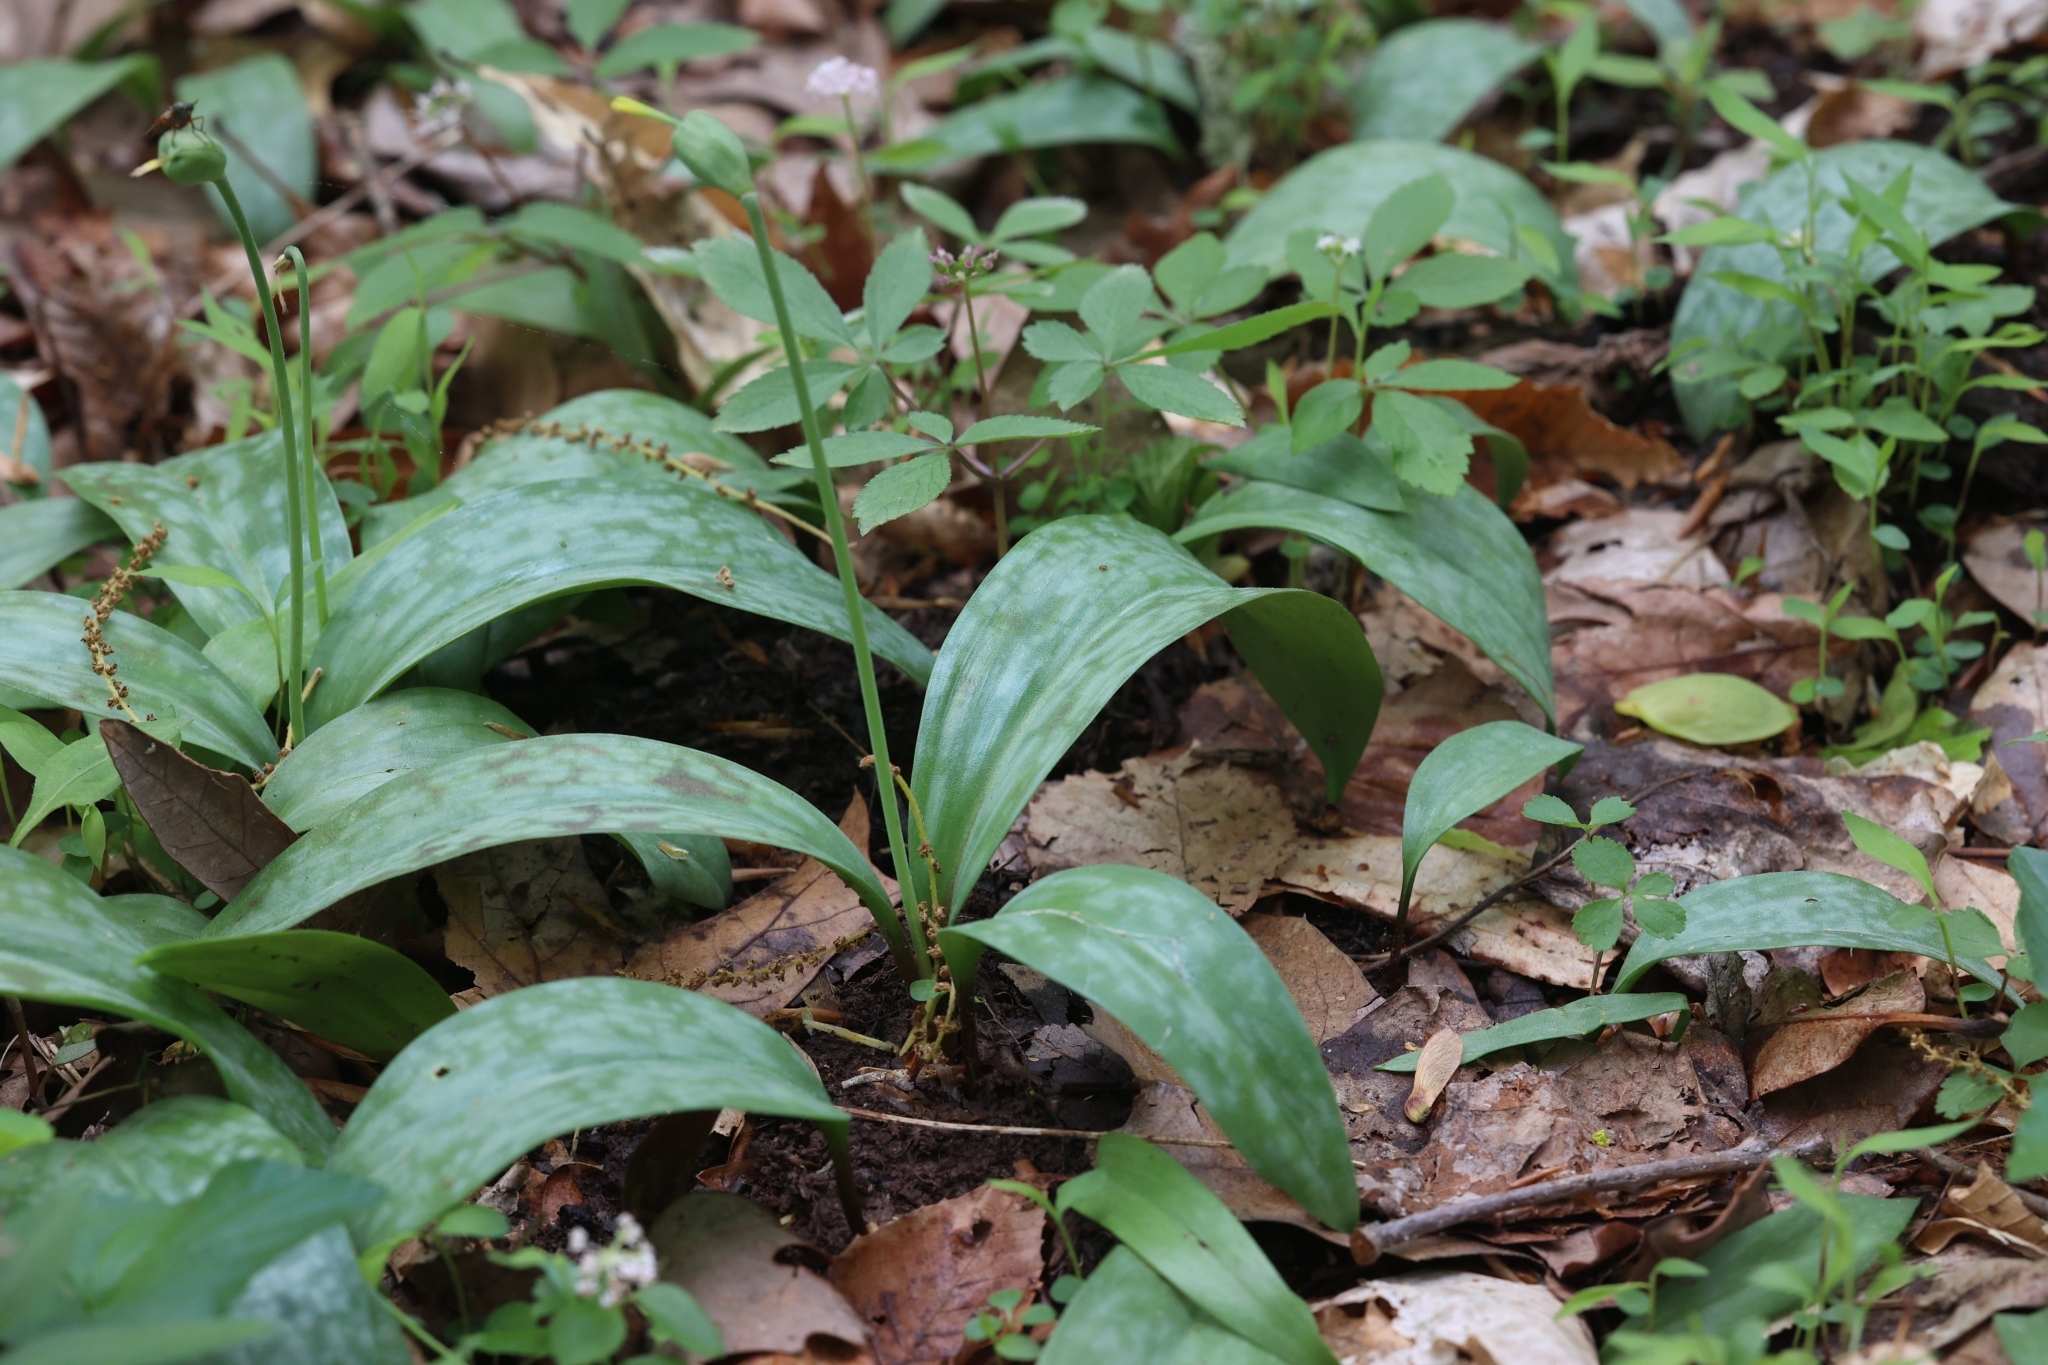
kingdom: Plantae
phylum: Tracheophyta
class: Liliopsida
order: Liliales
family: Liliaceae
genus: Erythronium
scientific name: Erythronium americanum
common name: Yellow adder's-tongue
